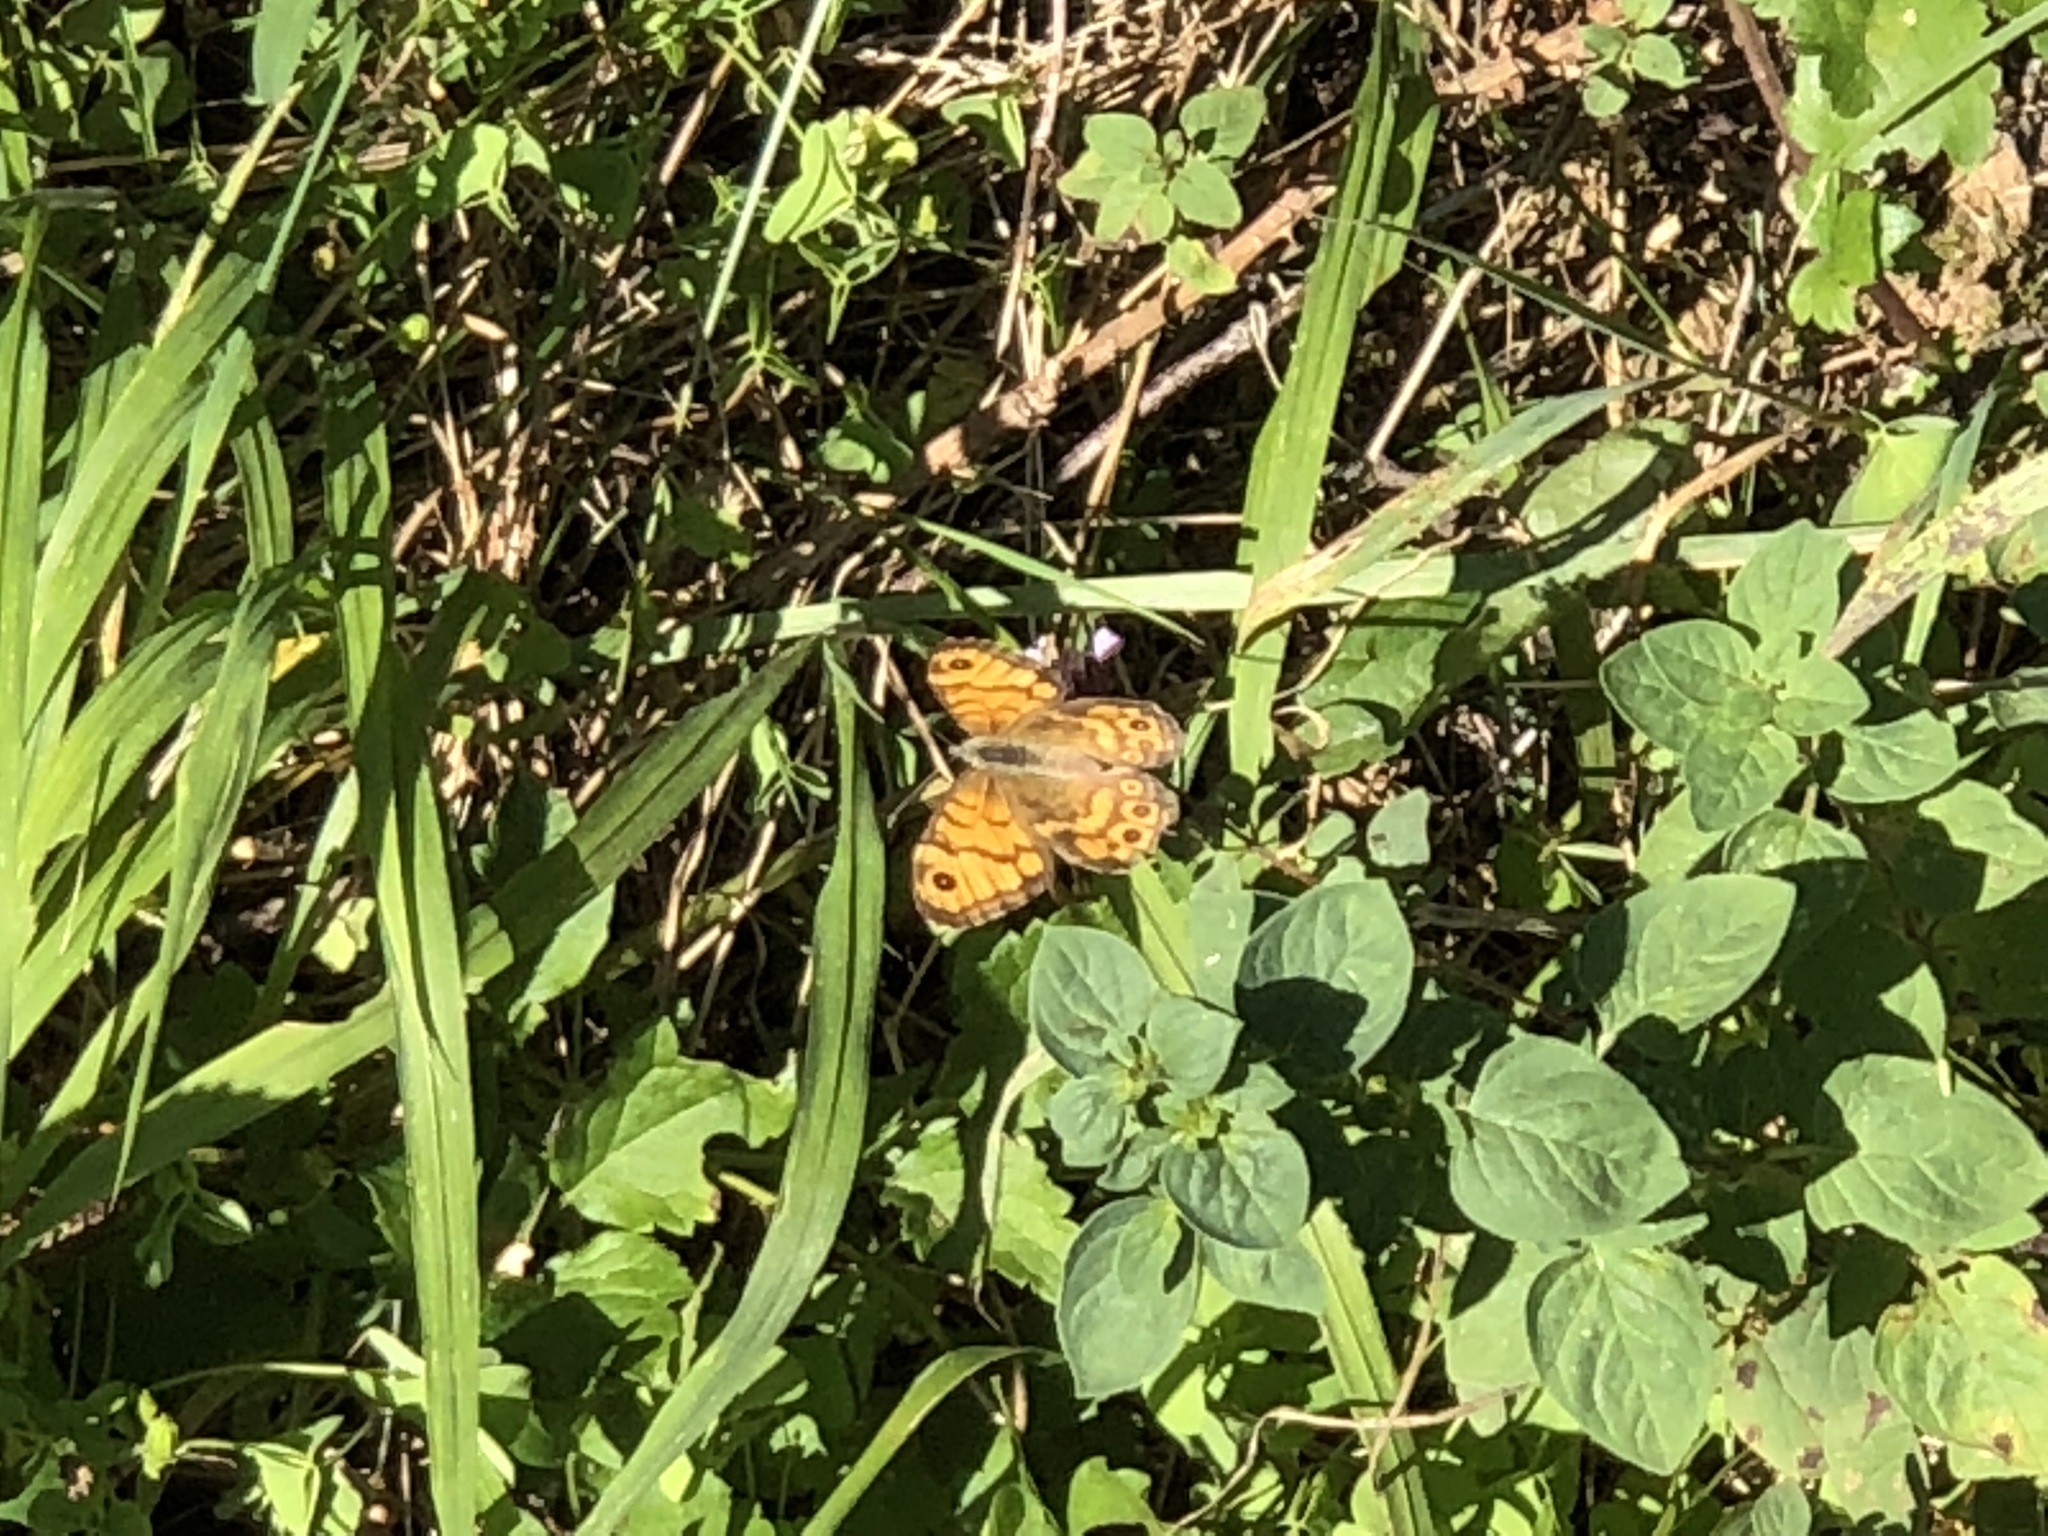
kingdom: Animalia
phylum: Arthropoda
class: Insecta
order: Lepidoptera
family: Nymphalidae
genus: Pararge
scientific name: Pararge Lasiommata megera
